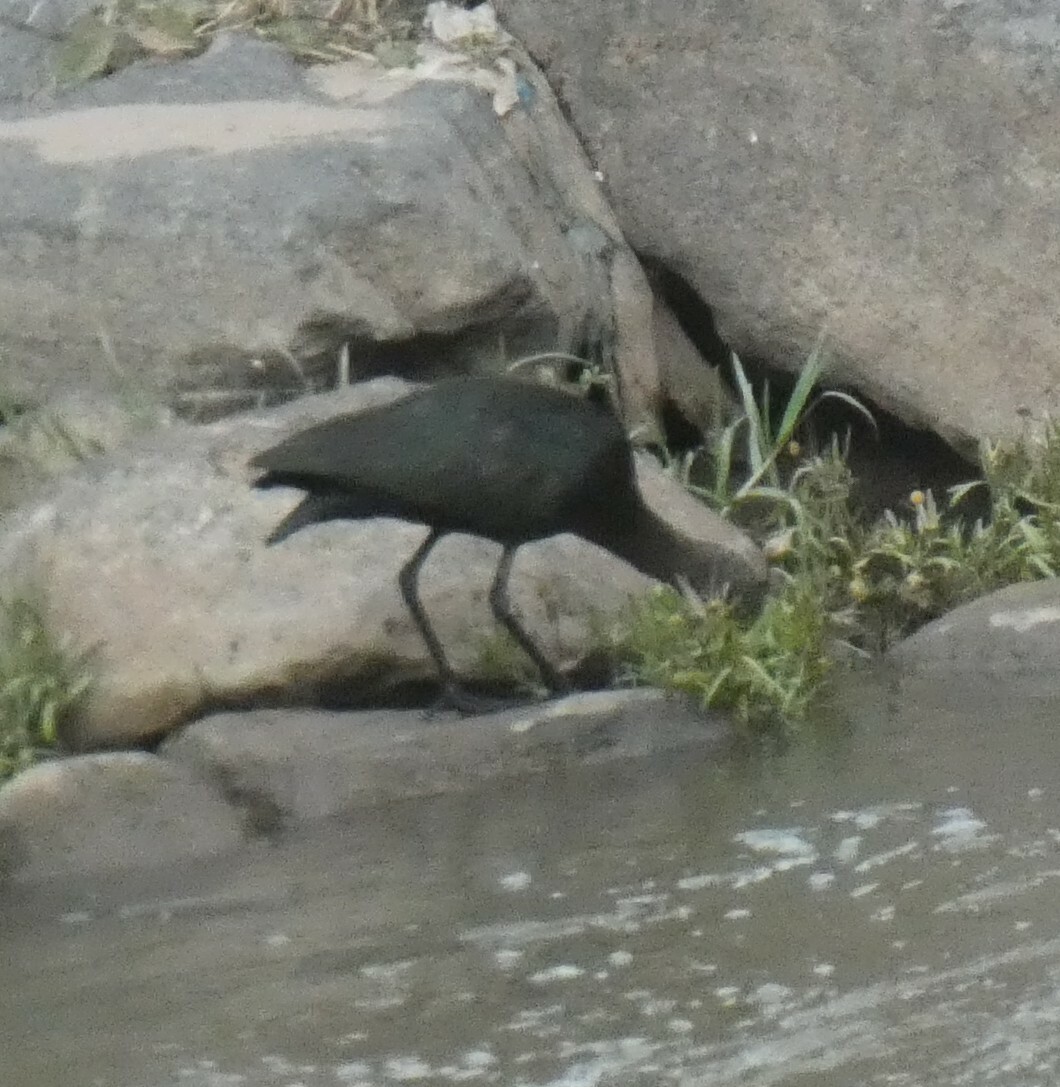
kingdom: Animalia
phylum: Chordata
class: Aves
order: Pelecaniformes
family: Threskiornithidae
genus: Plegadis
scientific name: Plegadis ridgwayi
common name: Puna ibis
